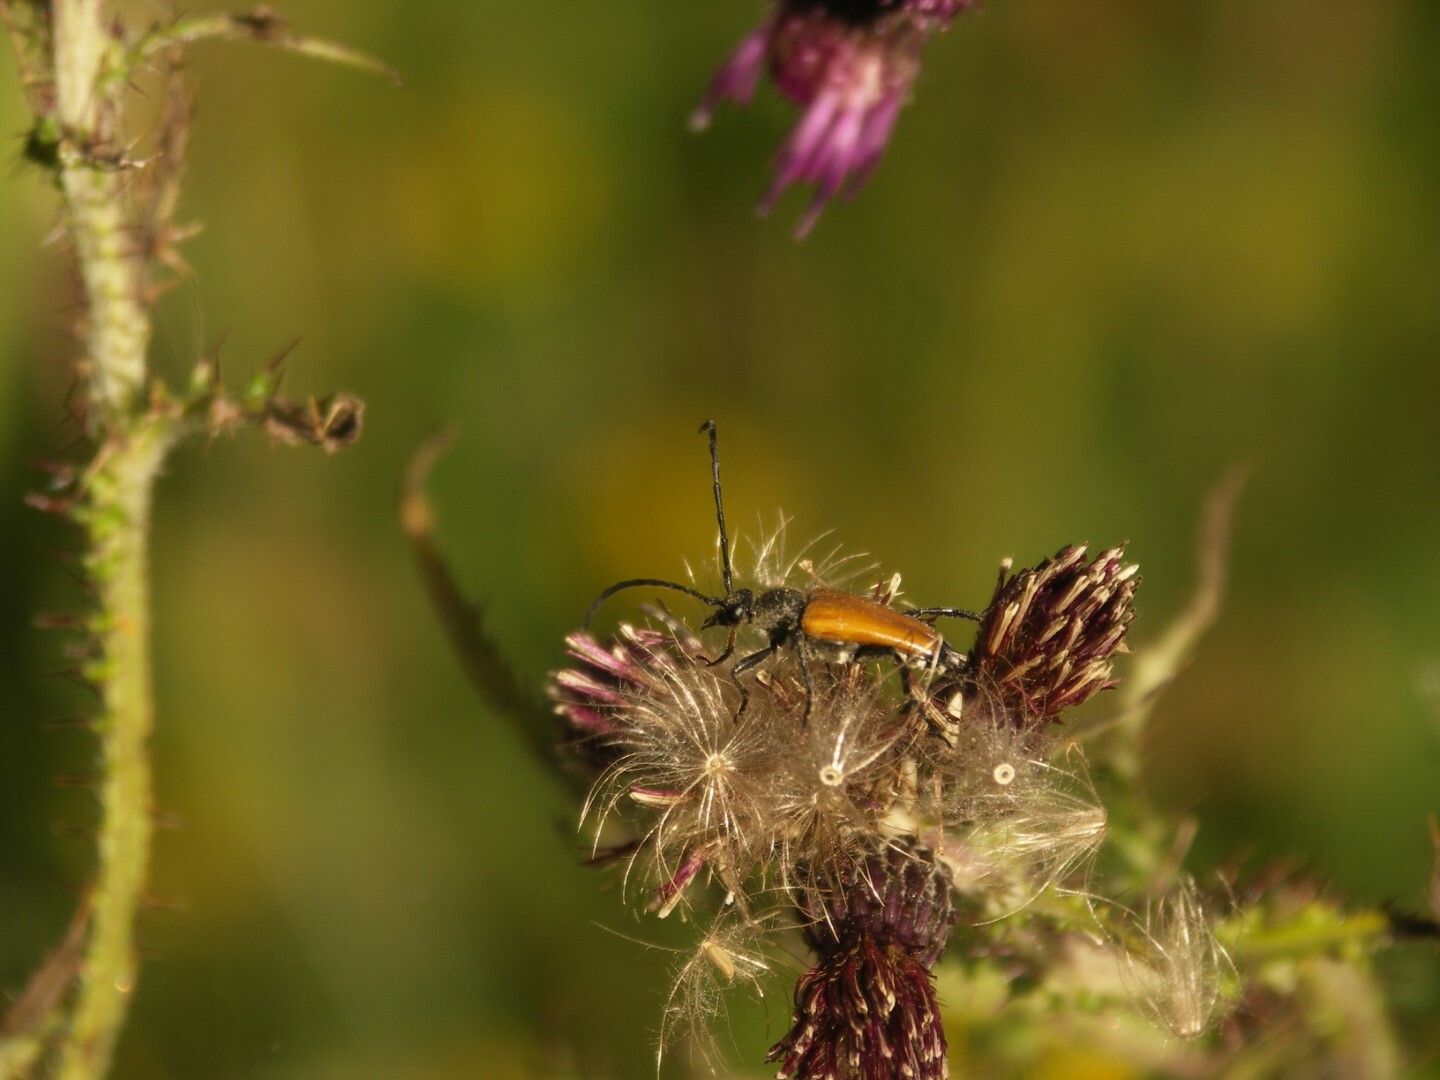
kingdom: Animalia
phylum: Arthropoda
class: Insecta
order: Coleoptera
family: Cerambycidae
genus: Paracorymbia
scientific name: Paracorymbia fulva
